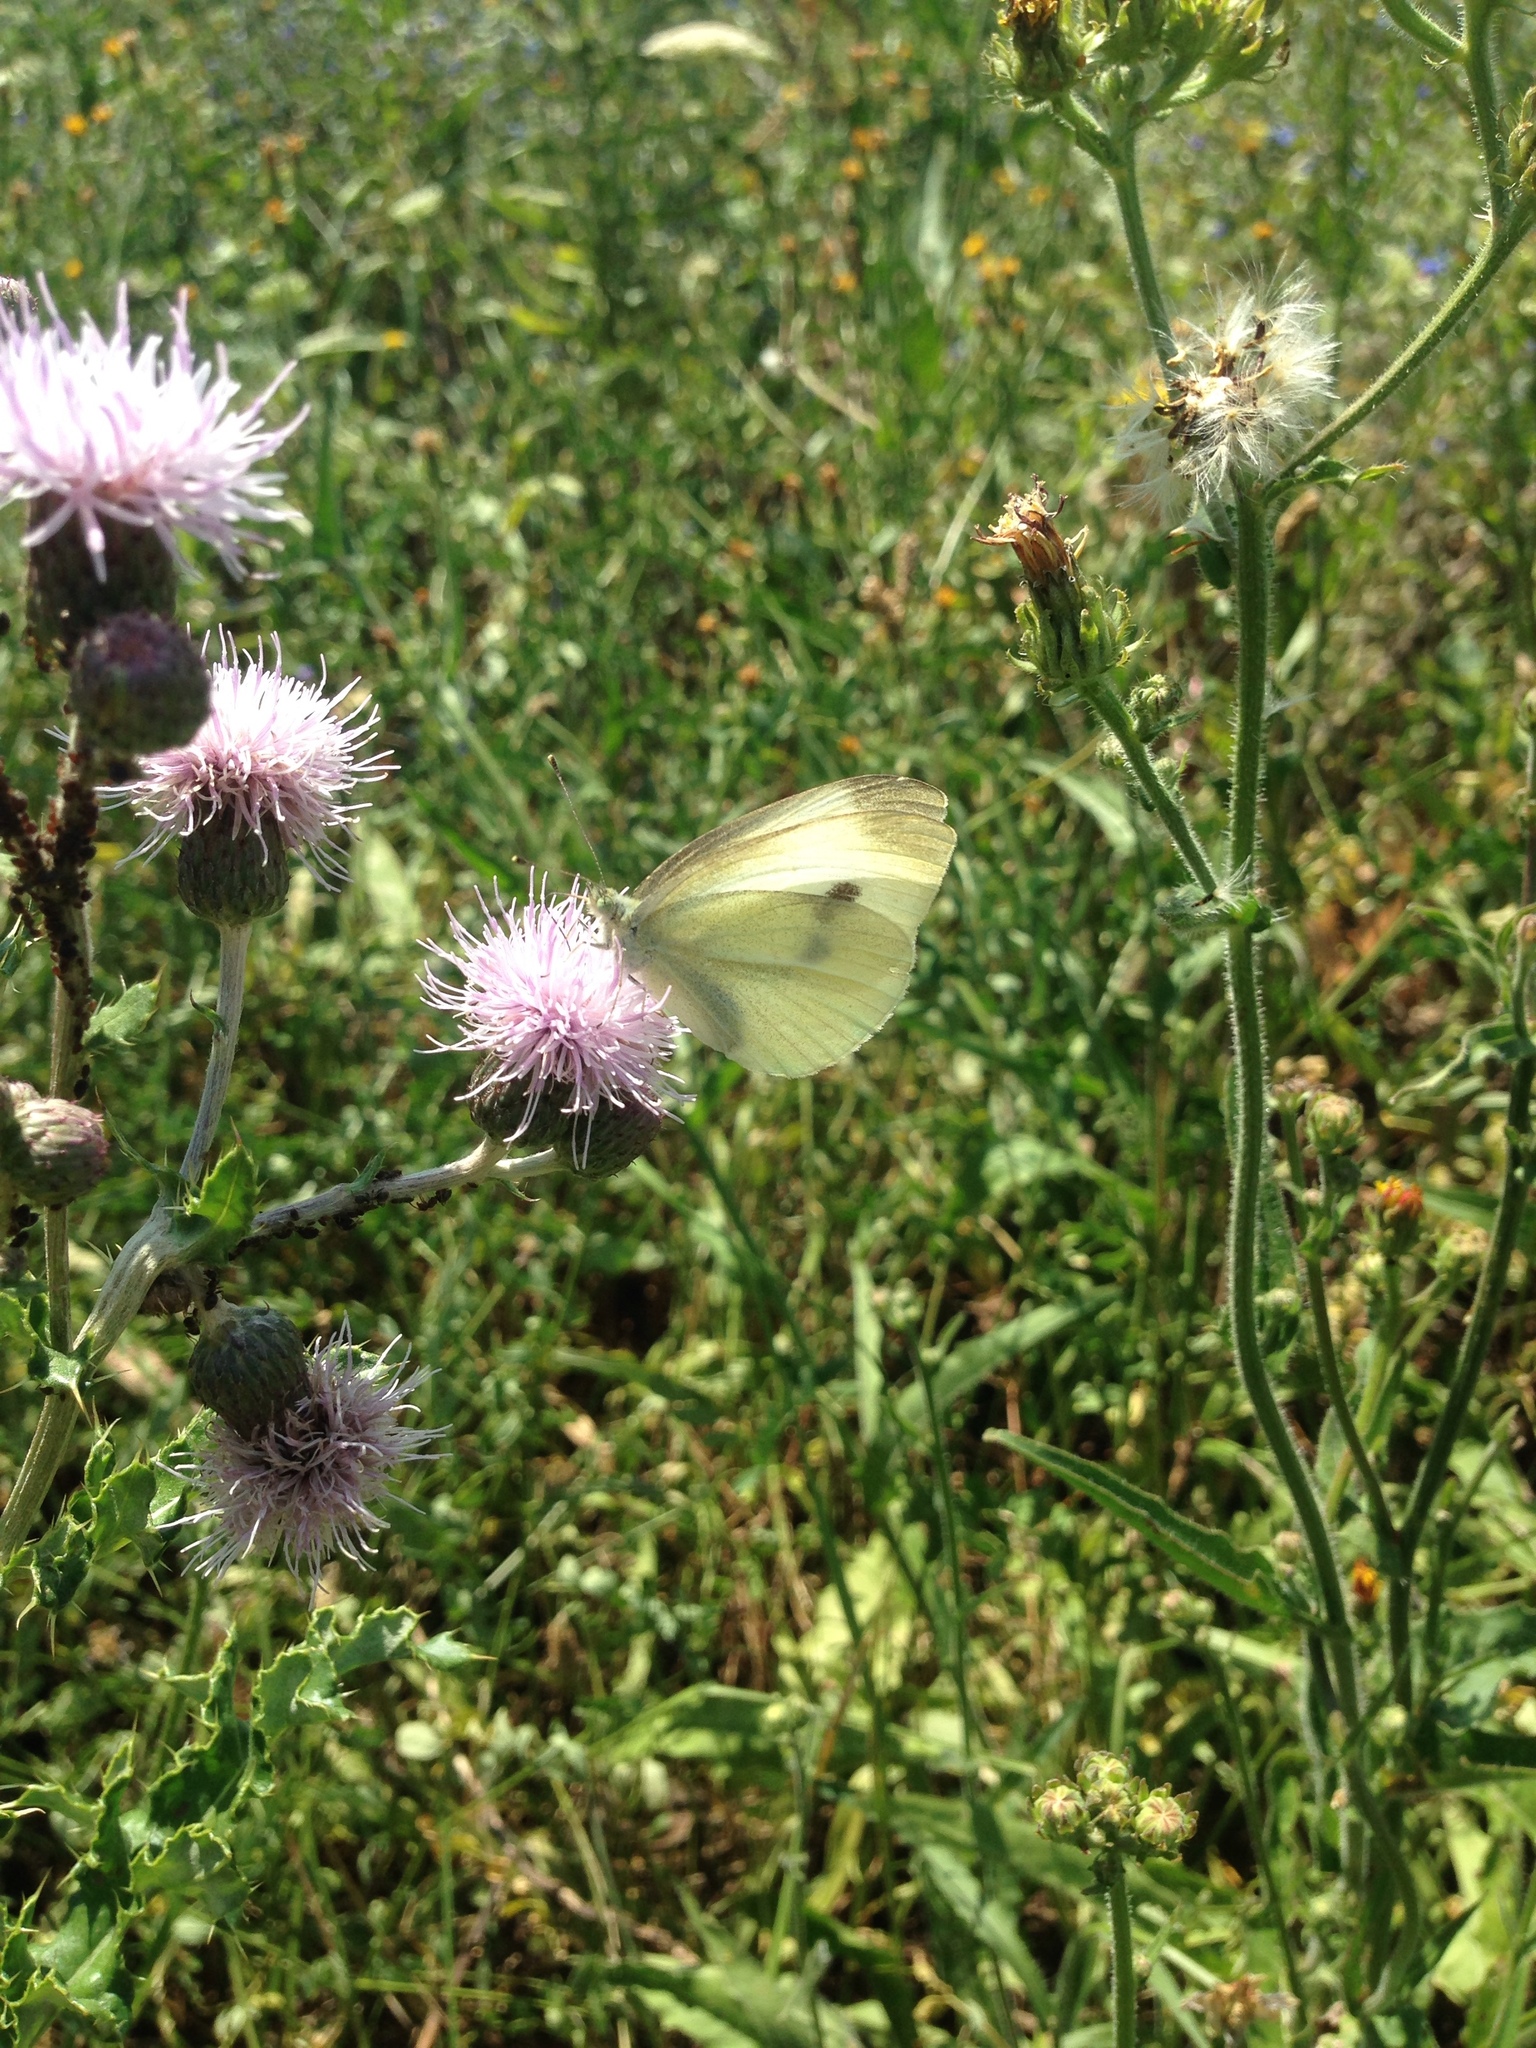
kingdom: Animalia
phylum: Arthropoda
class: Insecta
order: Lepidoptera
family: Pieridae
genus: Pieris
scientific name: Pieris rapae
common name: Small white
